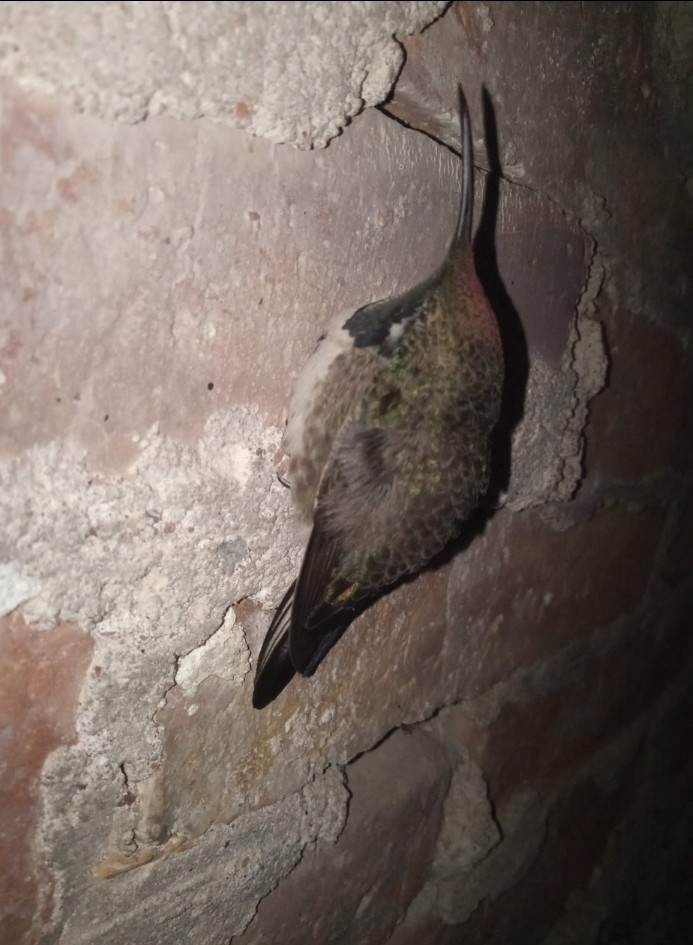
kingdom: Animalia
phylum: Chordata
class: Aves
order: Apodiformes
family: Trochilidae
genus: Oreotrochilus
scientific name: Oreotrochilus leucopleurus
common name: White-sided hillstar
